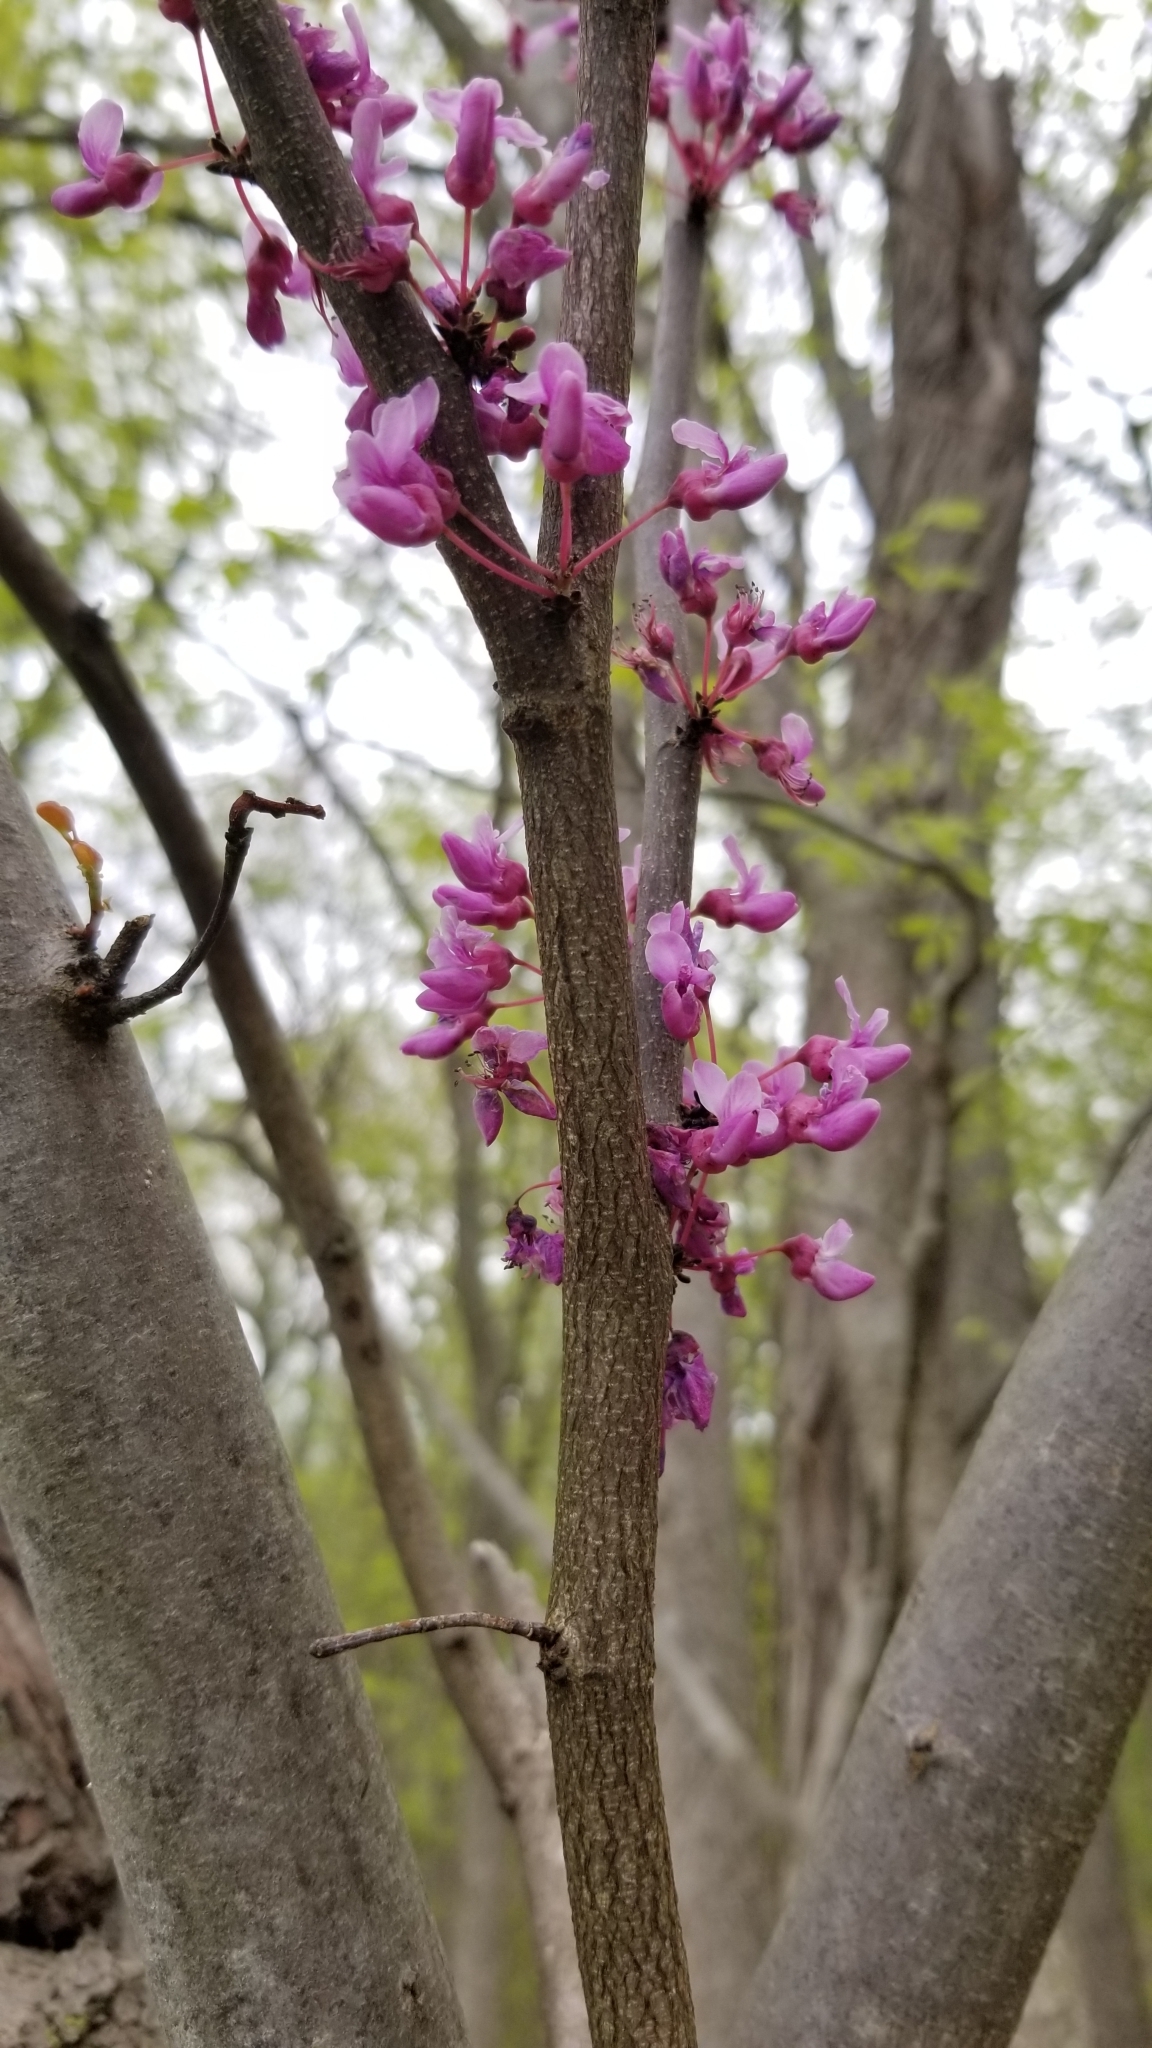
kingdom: Plantae
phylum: Tracheophyta
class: Magnoliopsida
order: Fabales
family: Fabaceae
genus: Cercis
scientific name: Cercis canadensis
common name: Eastern redbud
